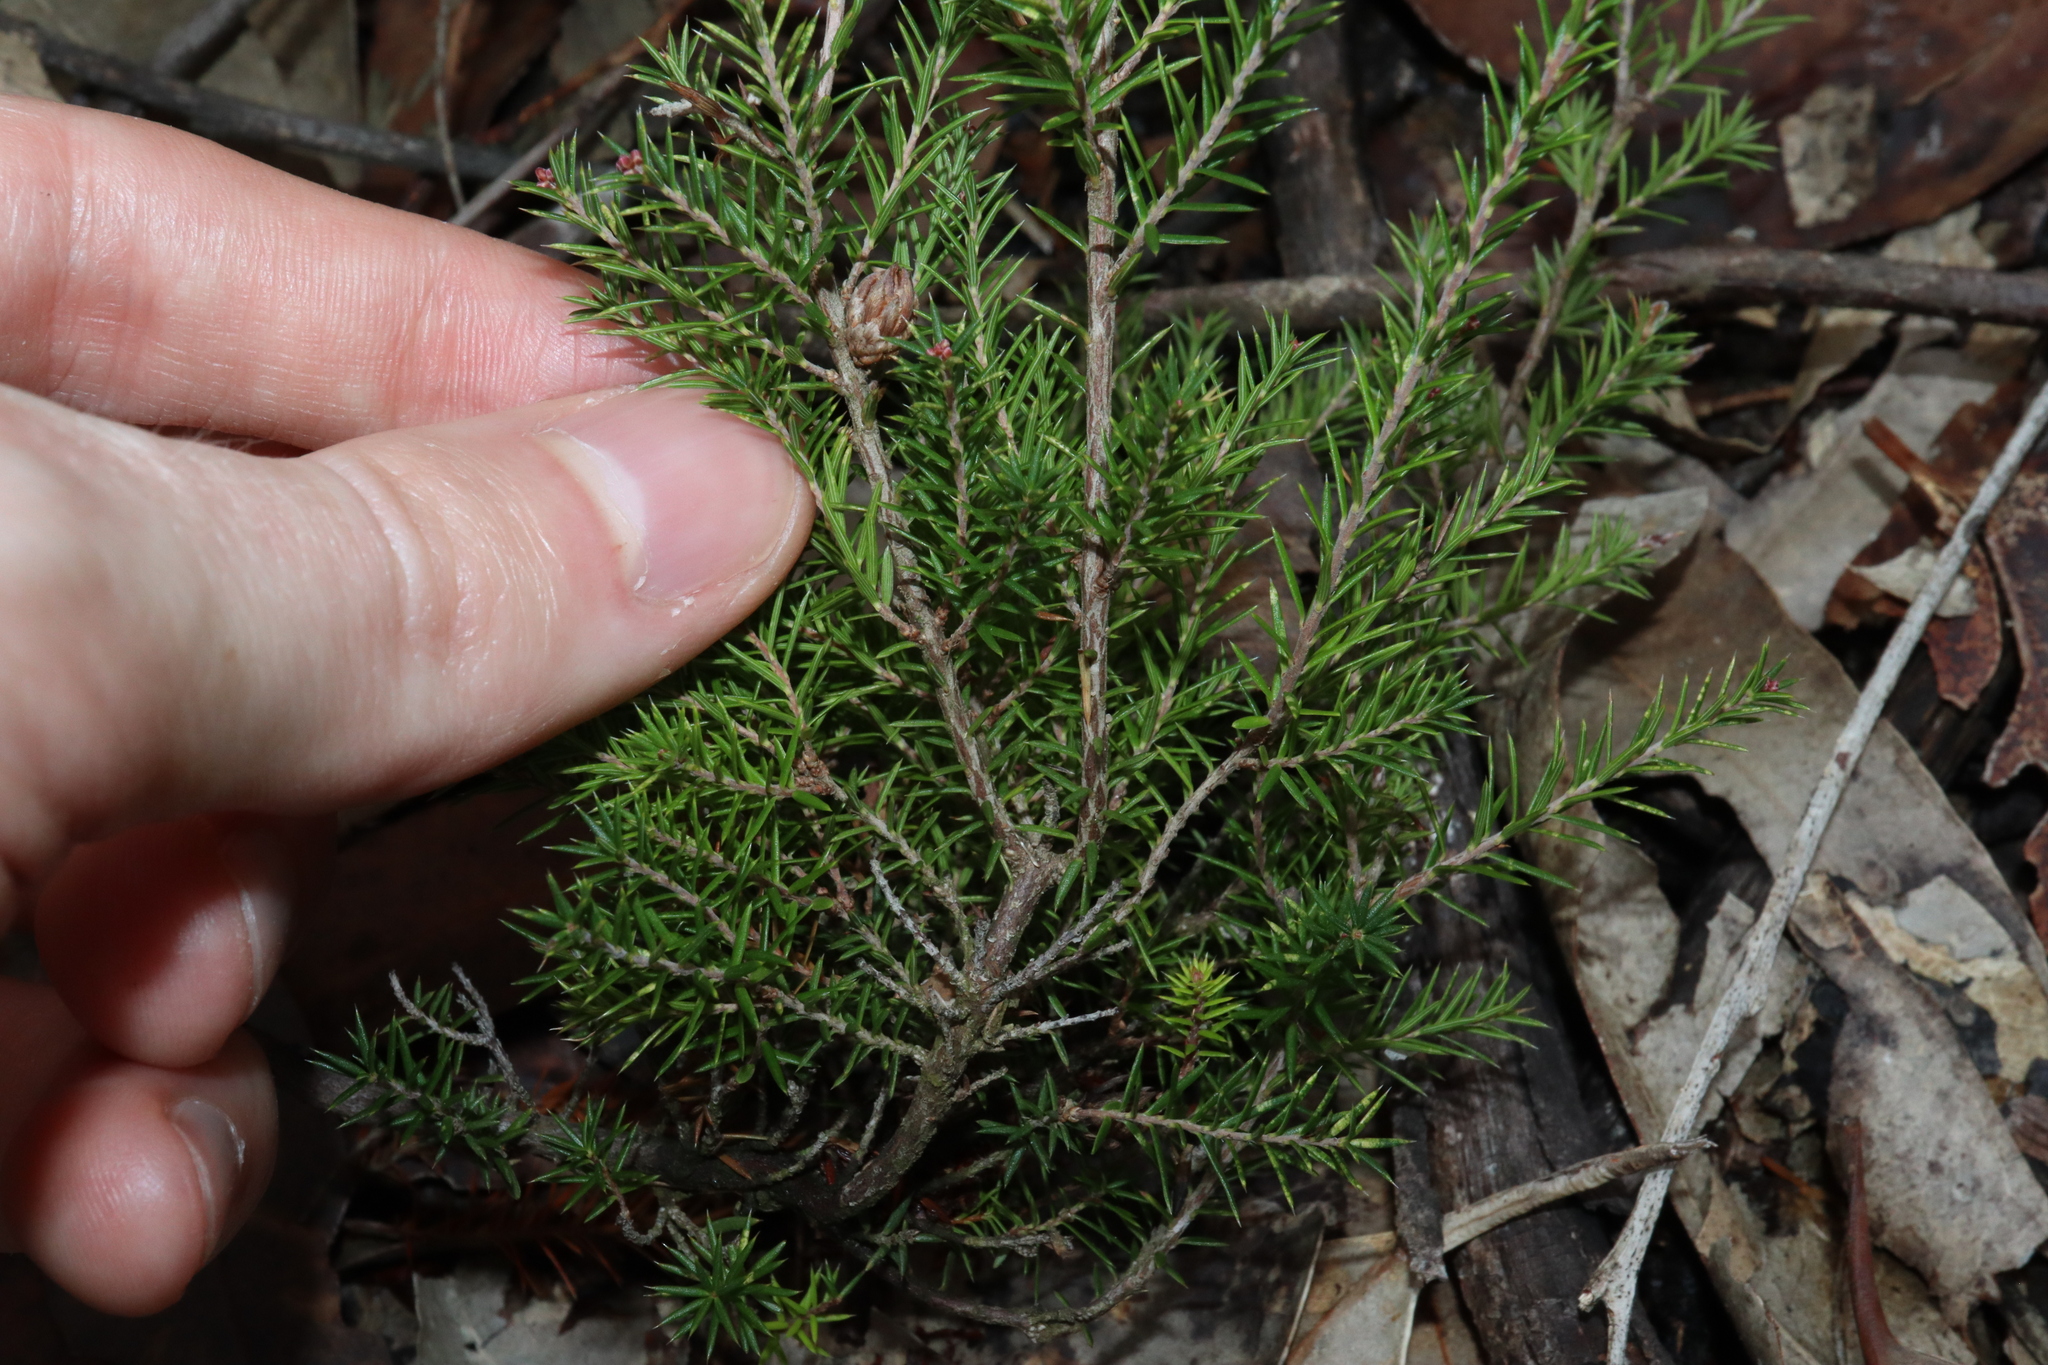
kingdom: Plantae
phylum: Tracheophyta
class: Magnoliopsida
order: Ericales
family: Ericaceae
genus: Lissanthe
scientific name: Lissanthe strigosa
